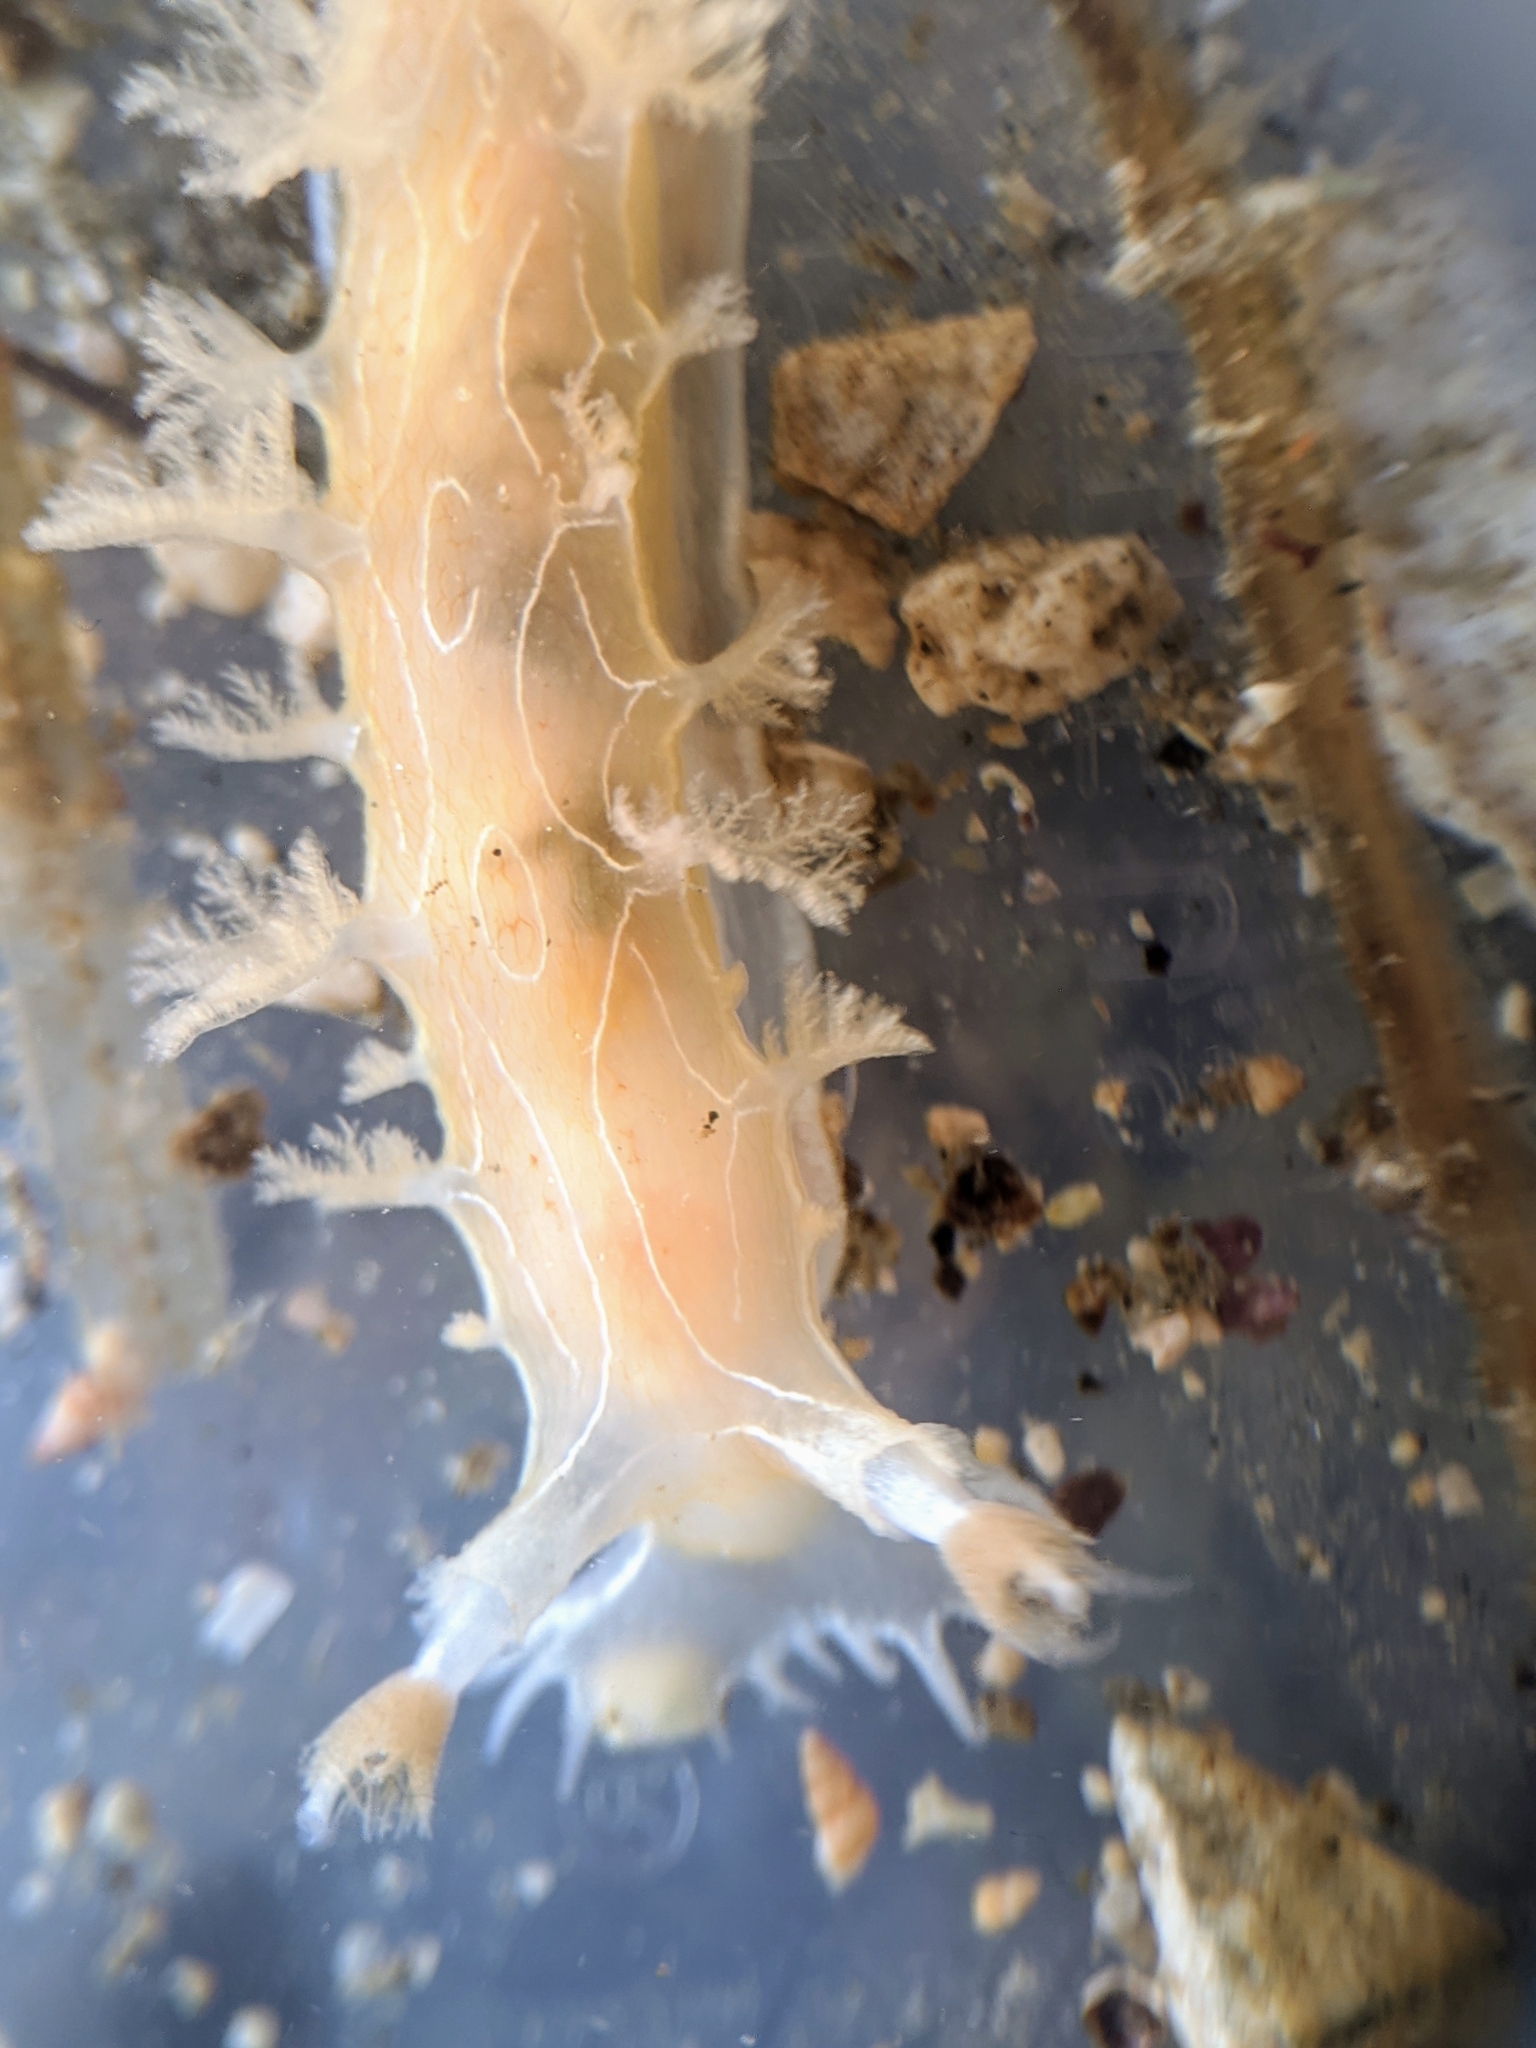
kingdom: Animalia
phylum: Mollusca
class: Gastropoda
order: Nudibranchia
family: Tritoniidae
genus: Tritonia
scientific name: Tritonia festiva
